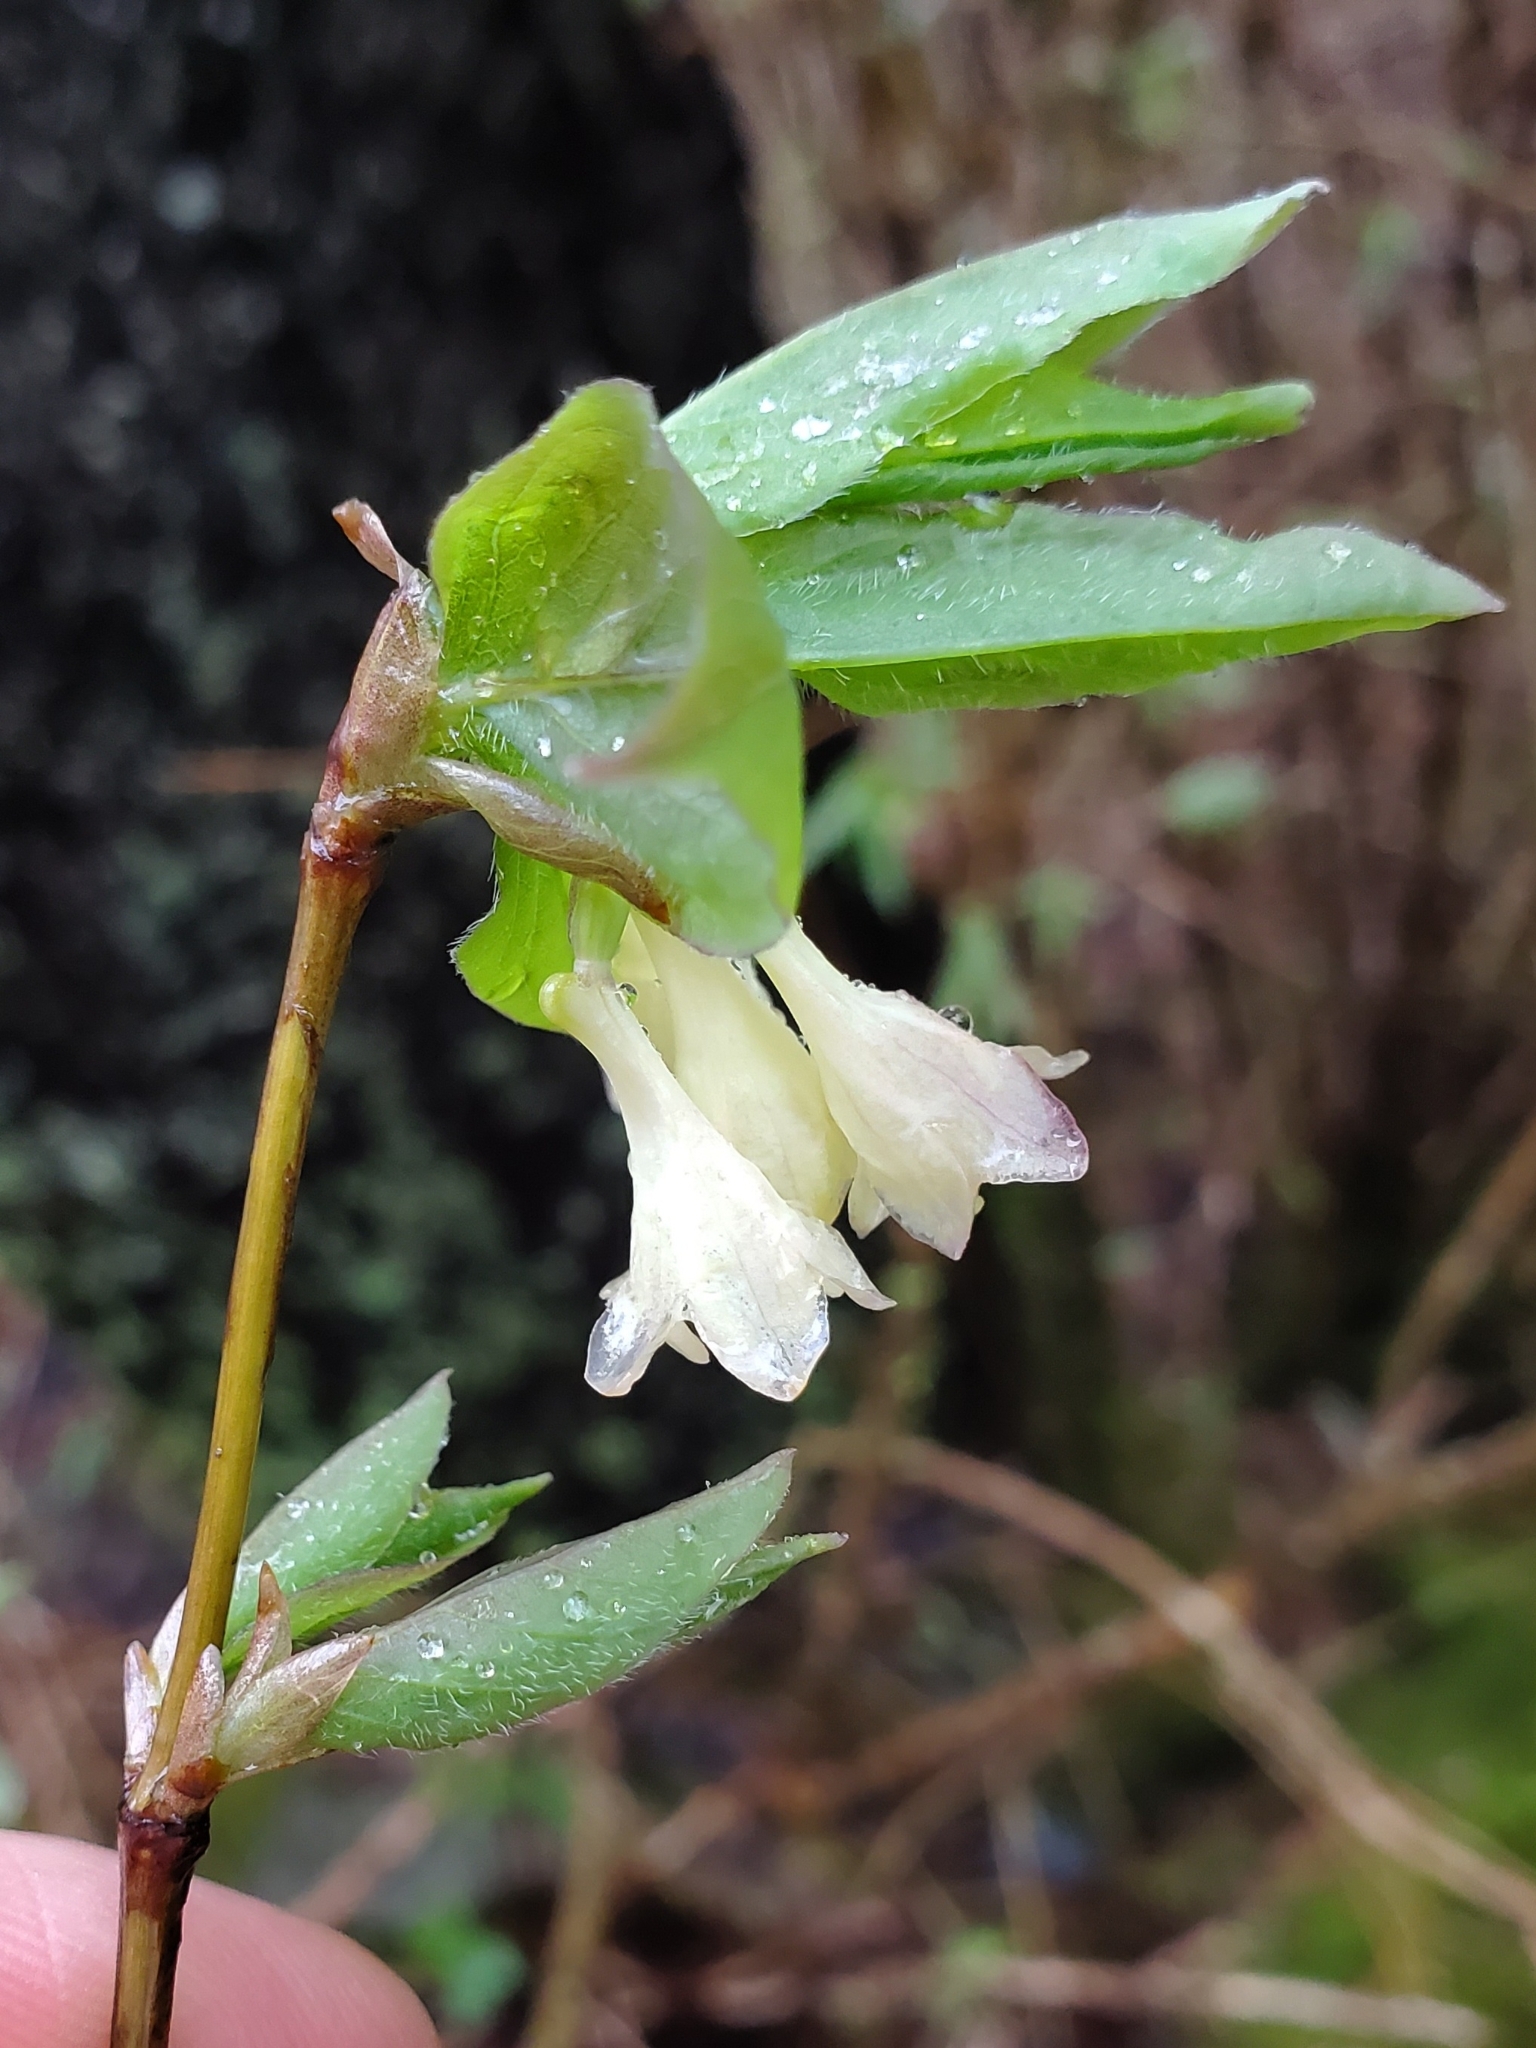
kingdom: Plantae
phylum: Tracheophyta
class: Magnoliopsida
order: Dipsacales
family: Caprifoliaceae
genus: Lonicera
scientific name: Lonicera canadensis
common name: American fly-honeysuckle
